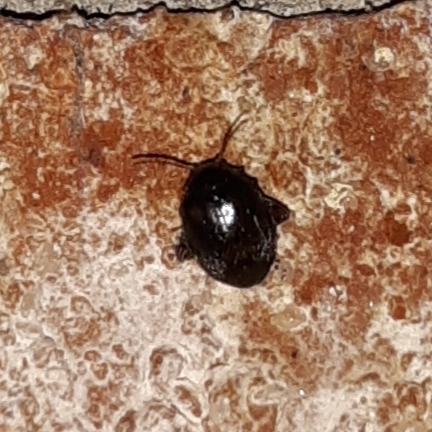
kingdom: Animalia
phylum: Arthropoda
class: Insecta
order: Coleoptera
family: Scirtidae
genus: Scirtes
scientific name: Scirtes tibialis
